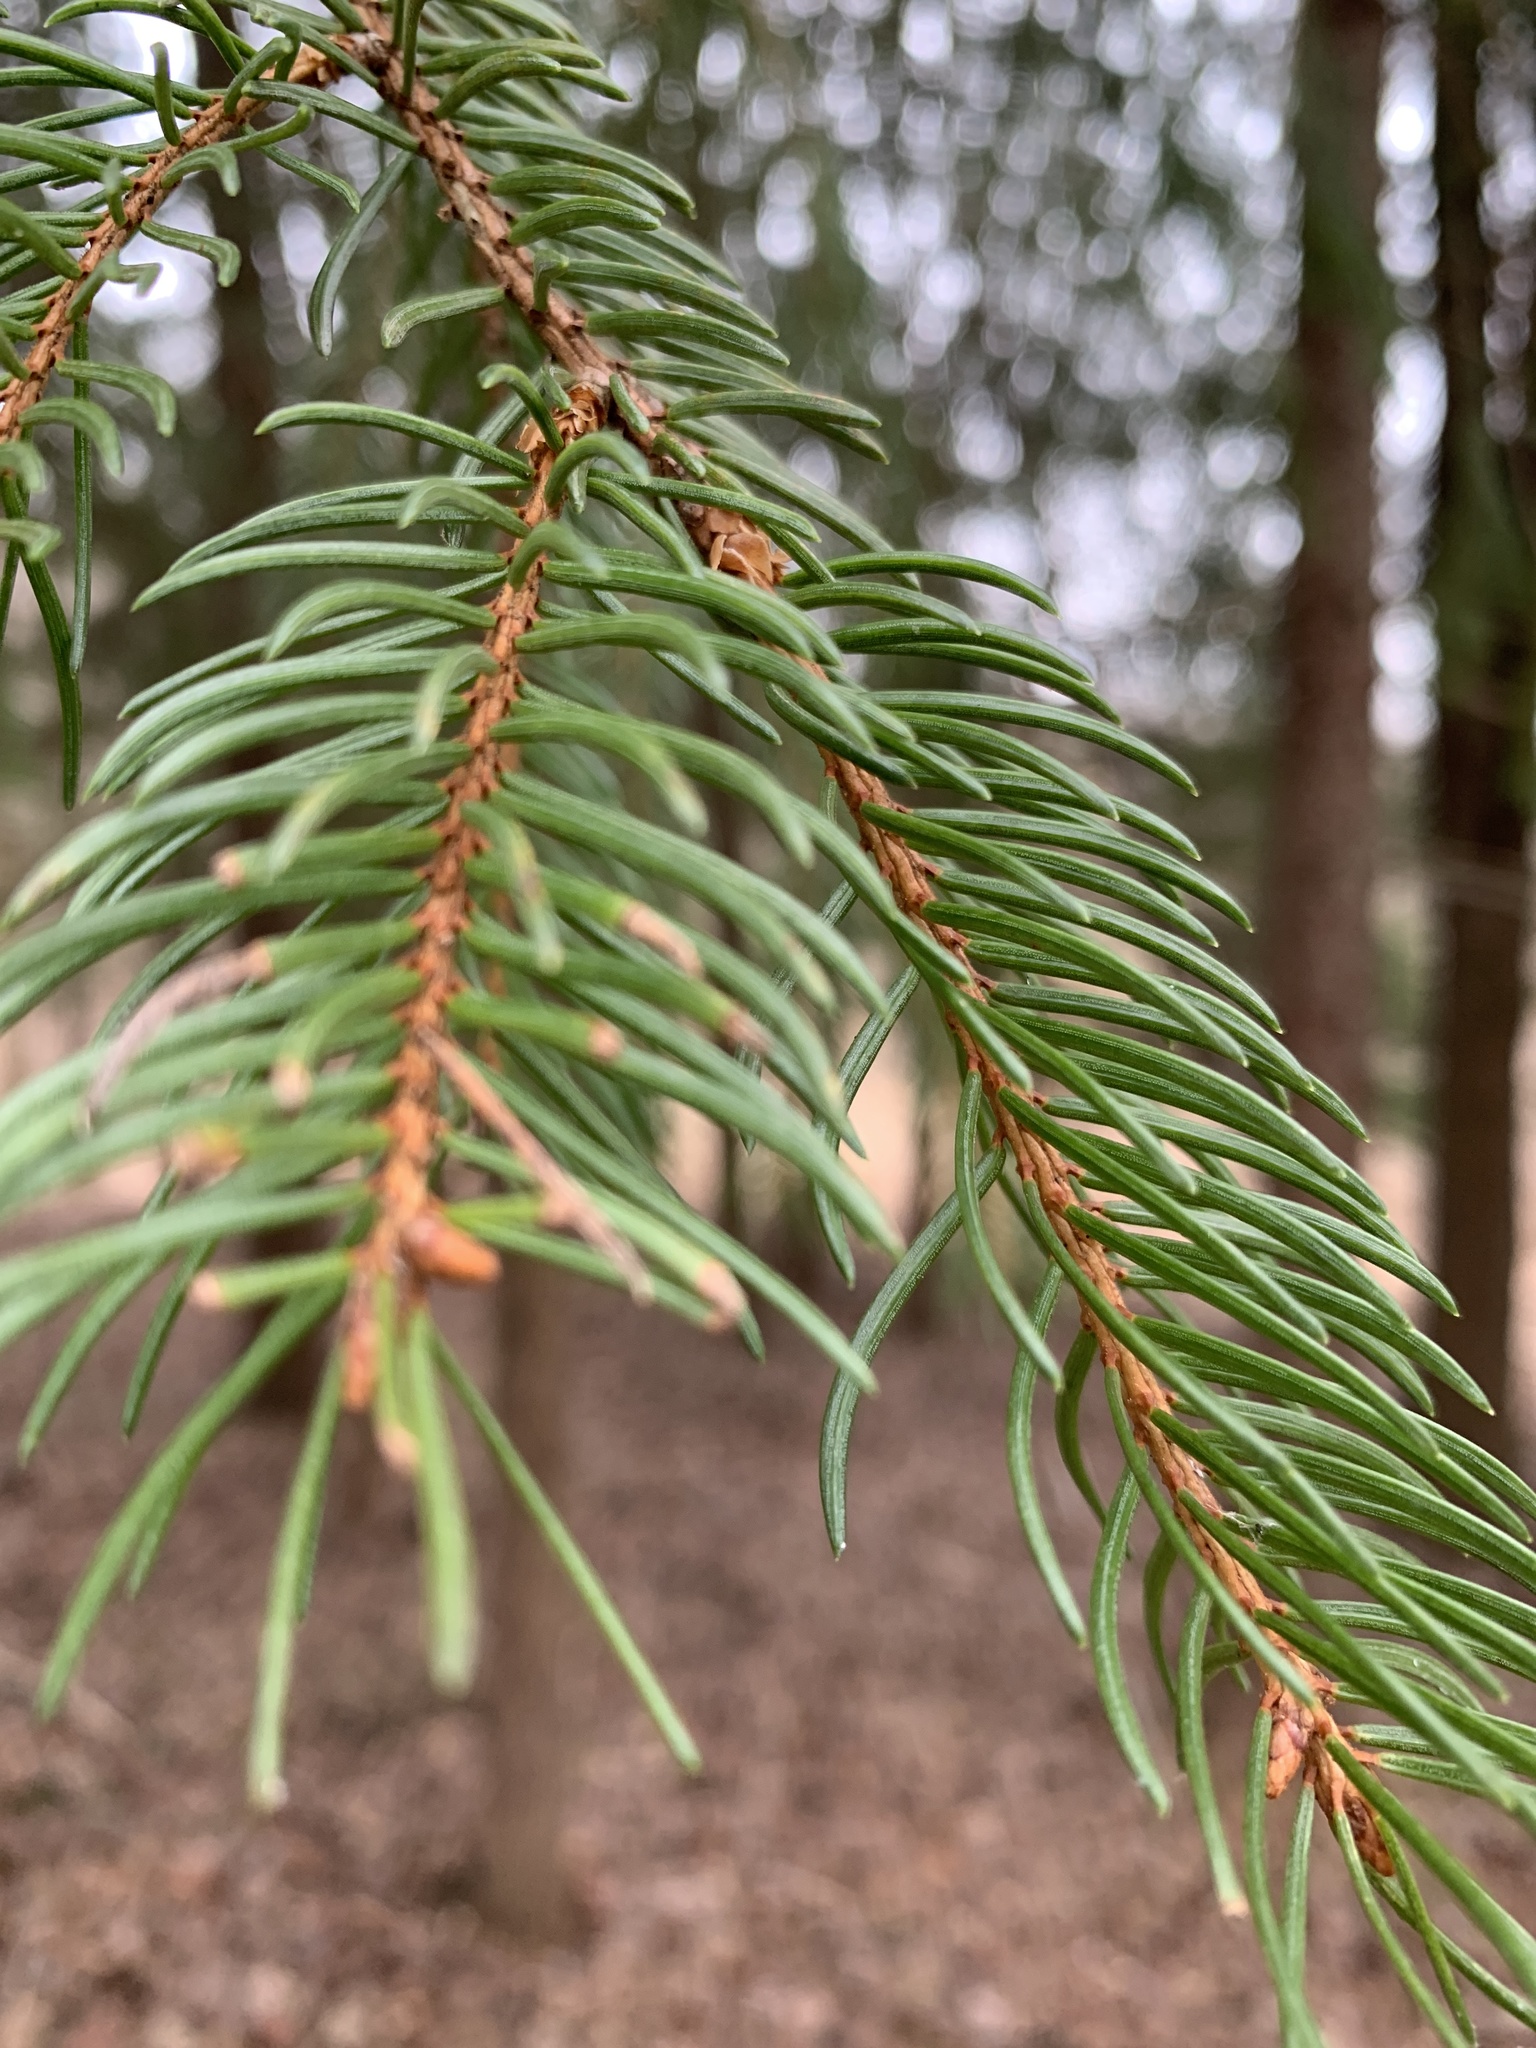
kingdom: Plantae
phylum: Tracheophyta
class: Pinopsida
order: Pinales
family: Pinaceae
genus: Picea
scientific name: Picea abies
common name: Norway spruce
